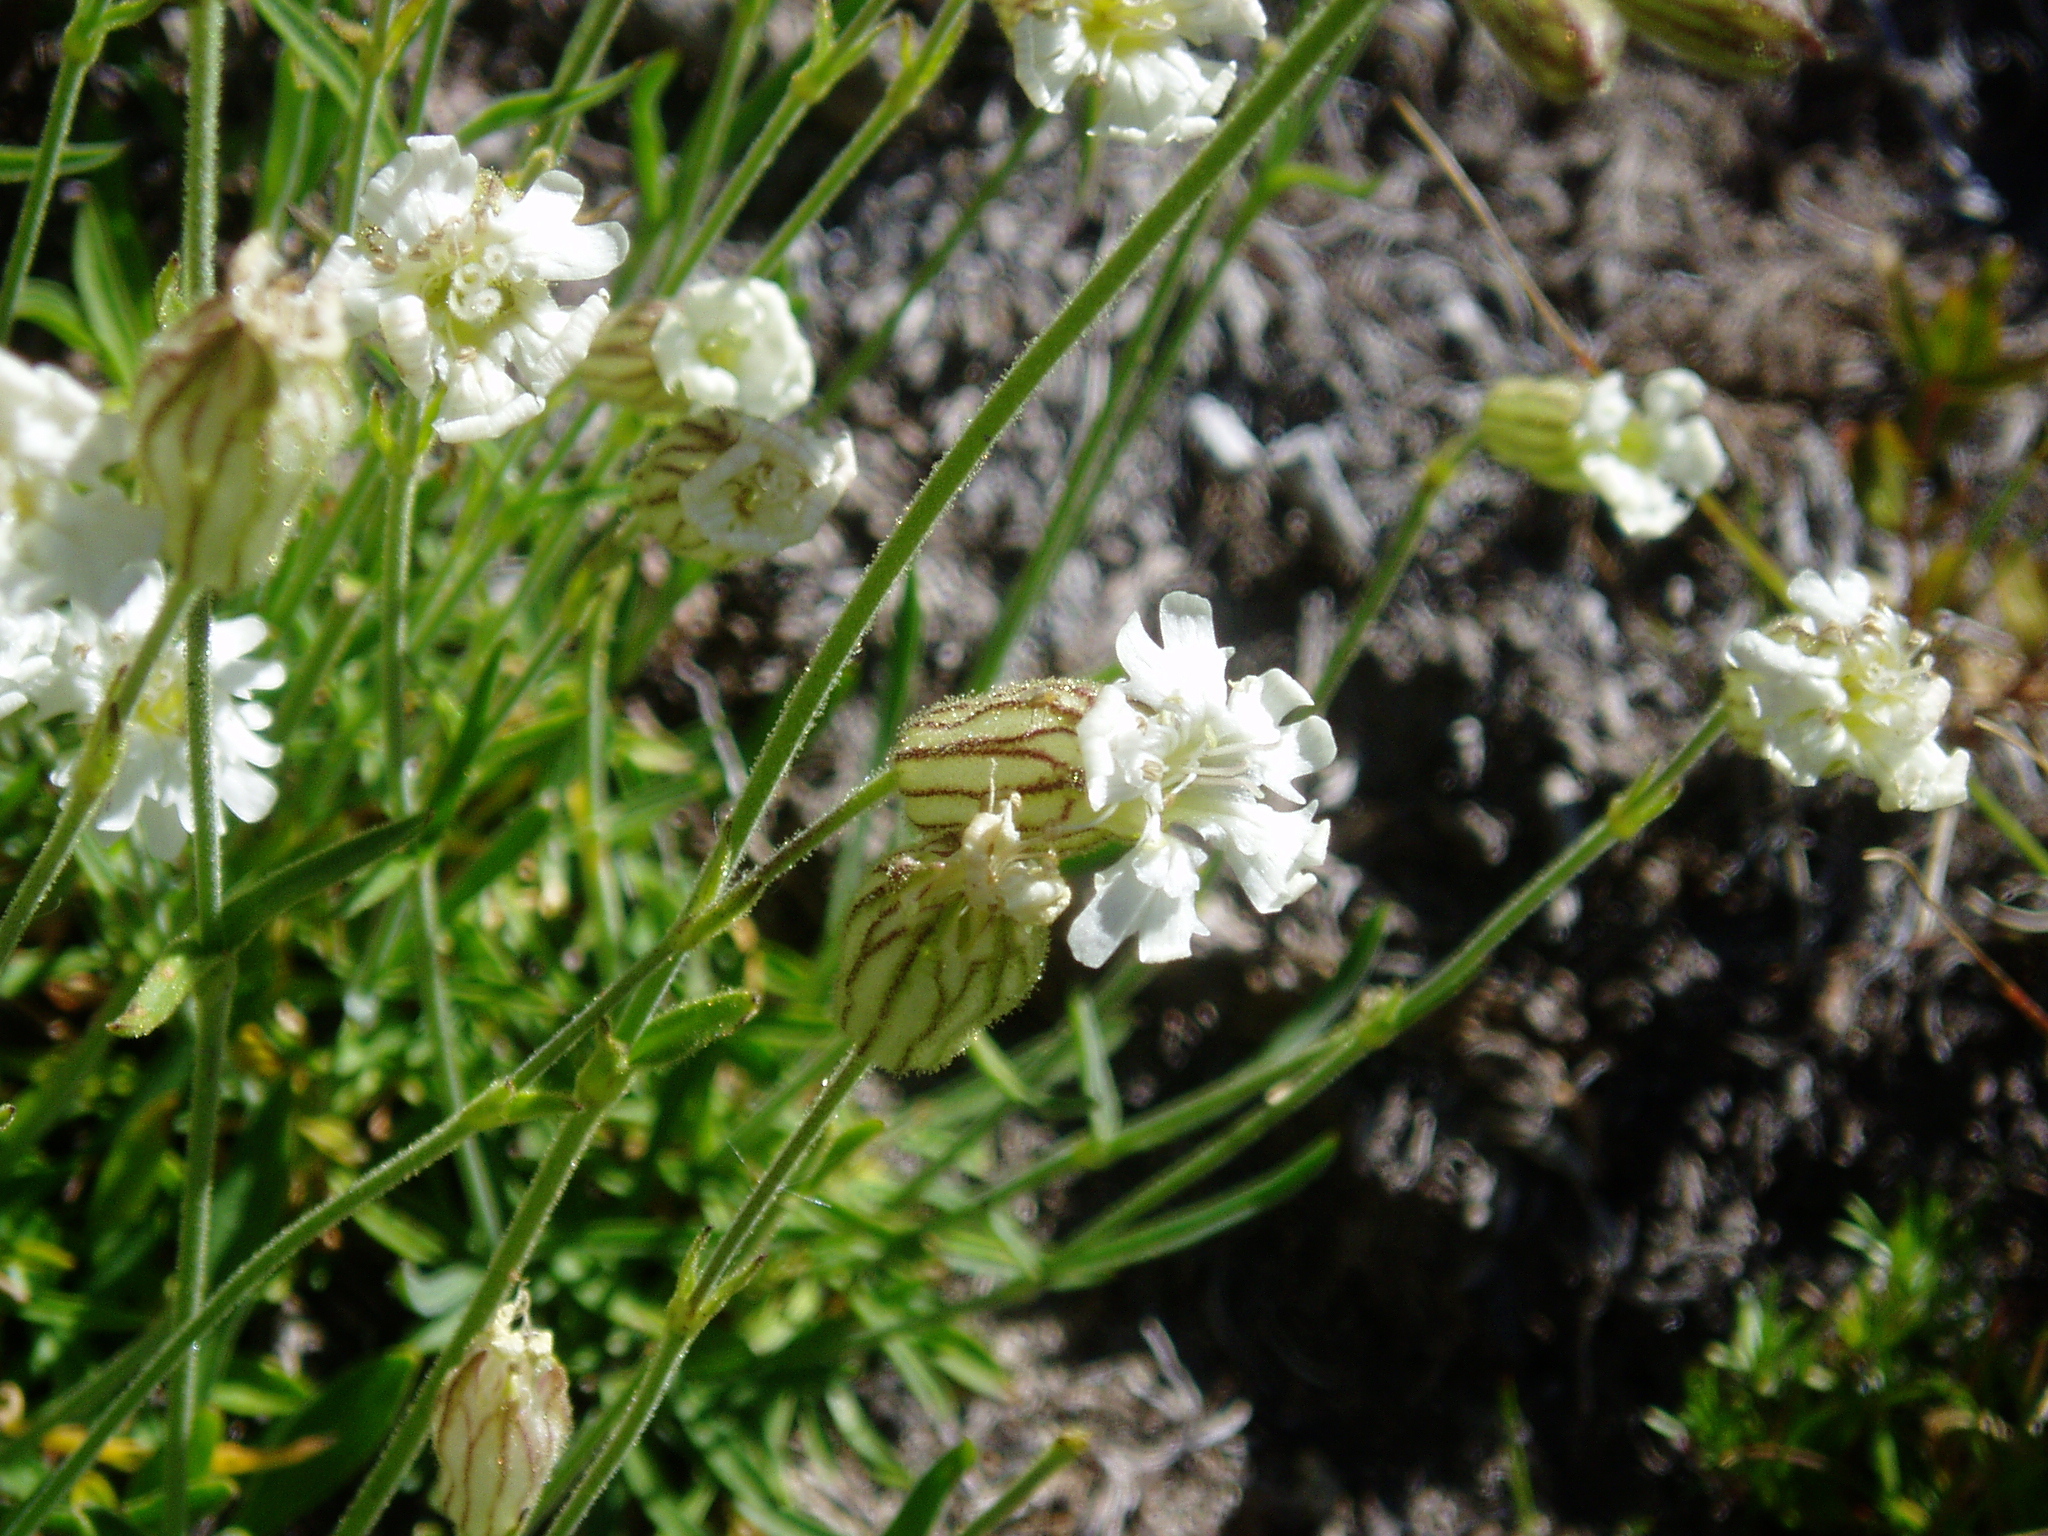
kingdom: Plantae
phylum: Tracheophyta
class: Magnoliopsida
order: Caryophyllales
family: Caryophyllaceae
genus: Silene
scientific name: Silene parryi
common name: Parry's campion
